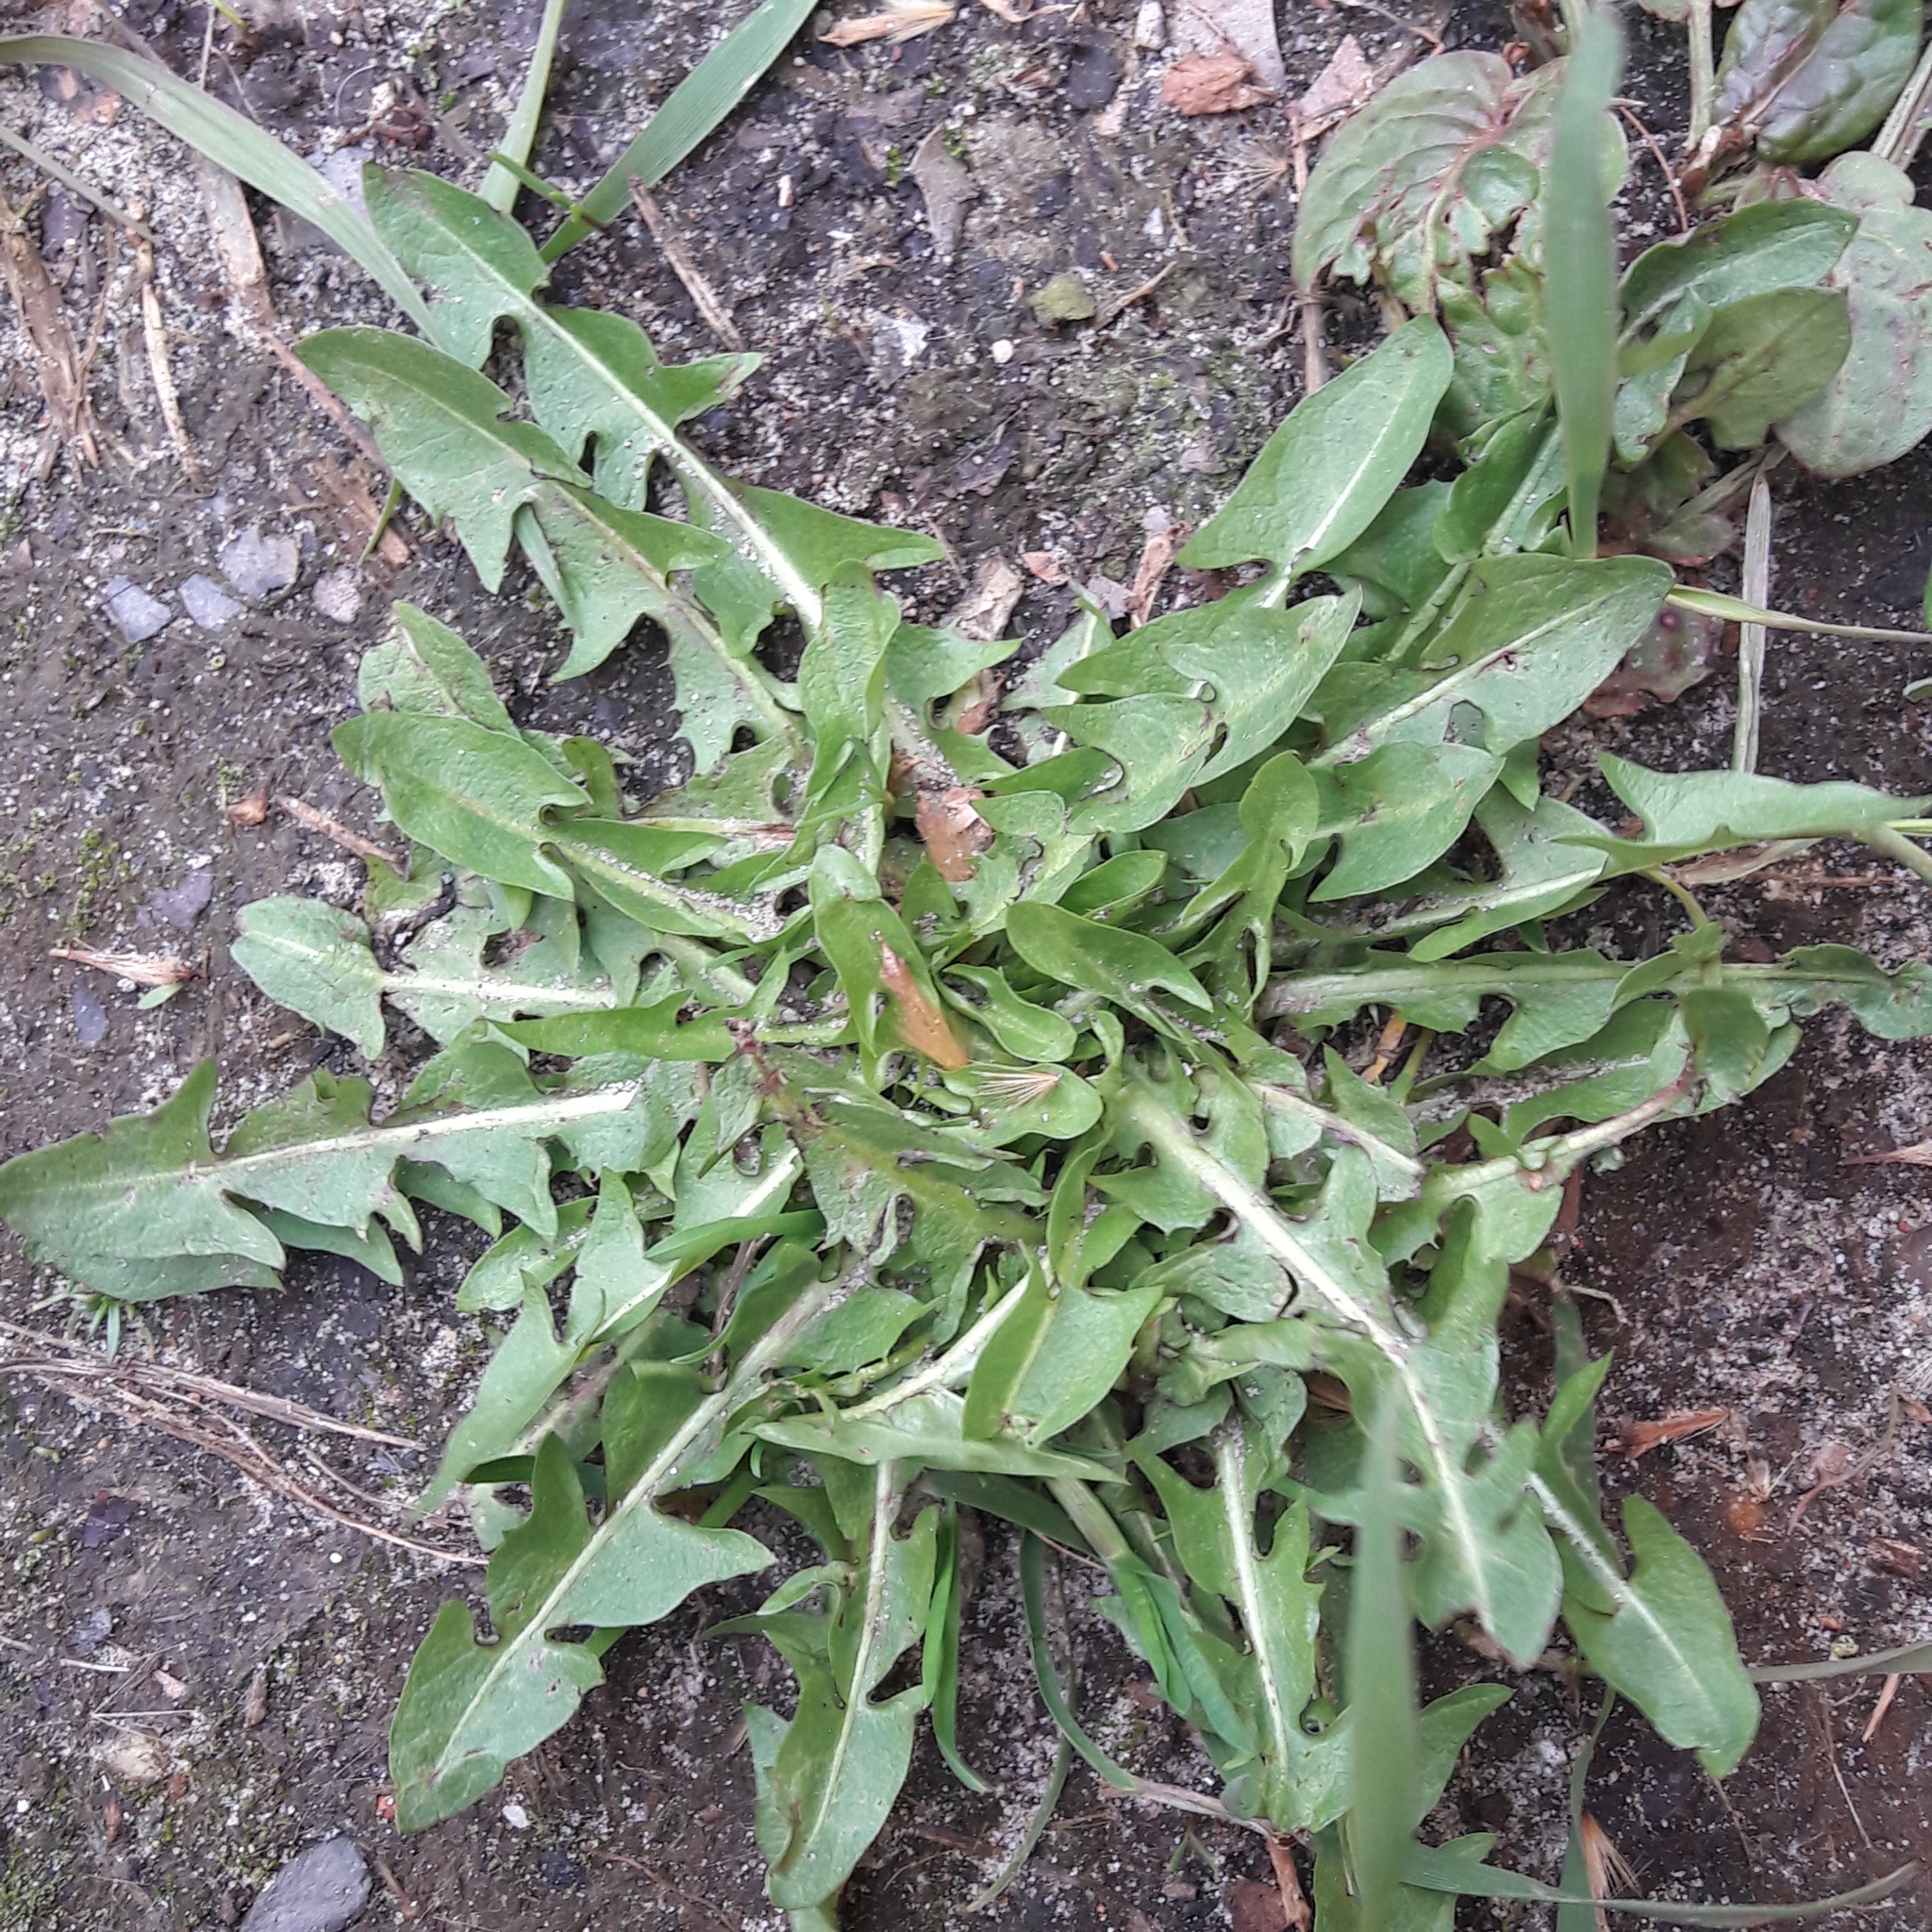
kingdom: Plantae
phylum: Tracheophyta
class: Magnoliopsida
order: Asterales
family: Asteraceae
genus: Taraxacum
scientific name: Taraxacum officinale
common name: Common dandelion
